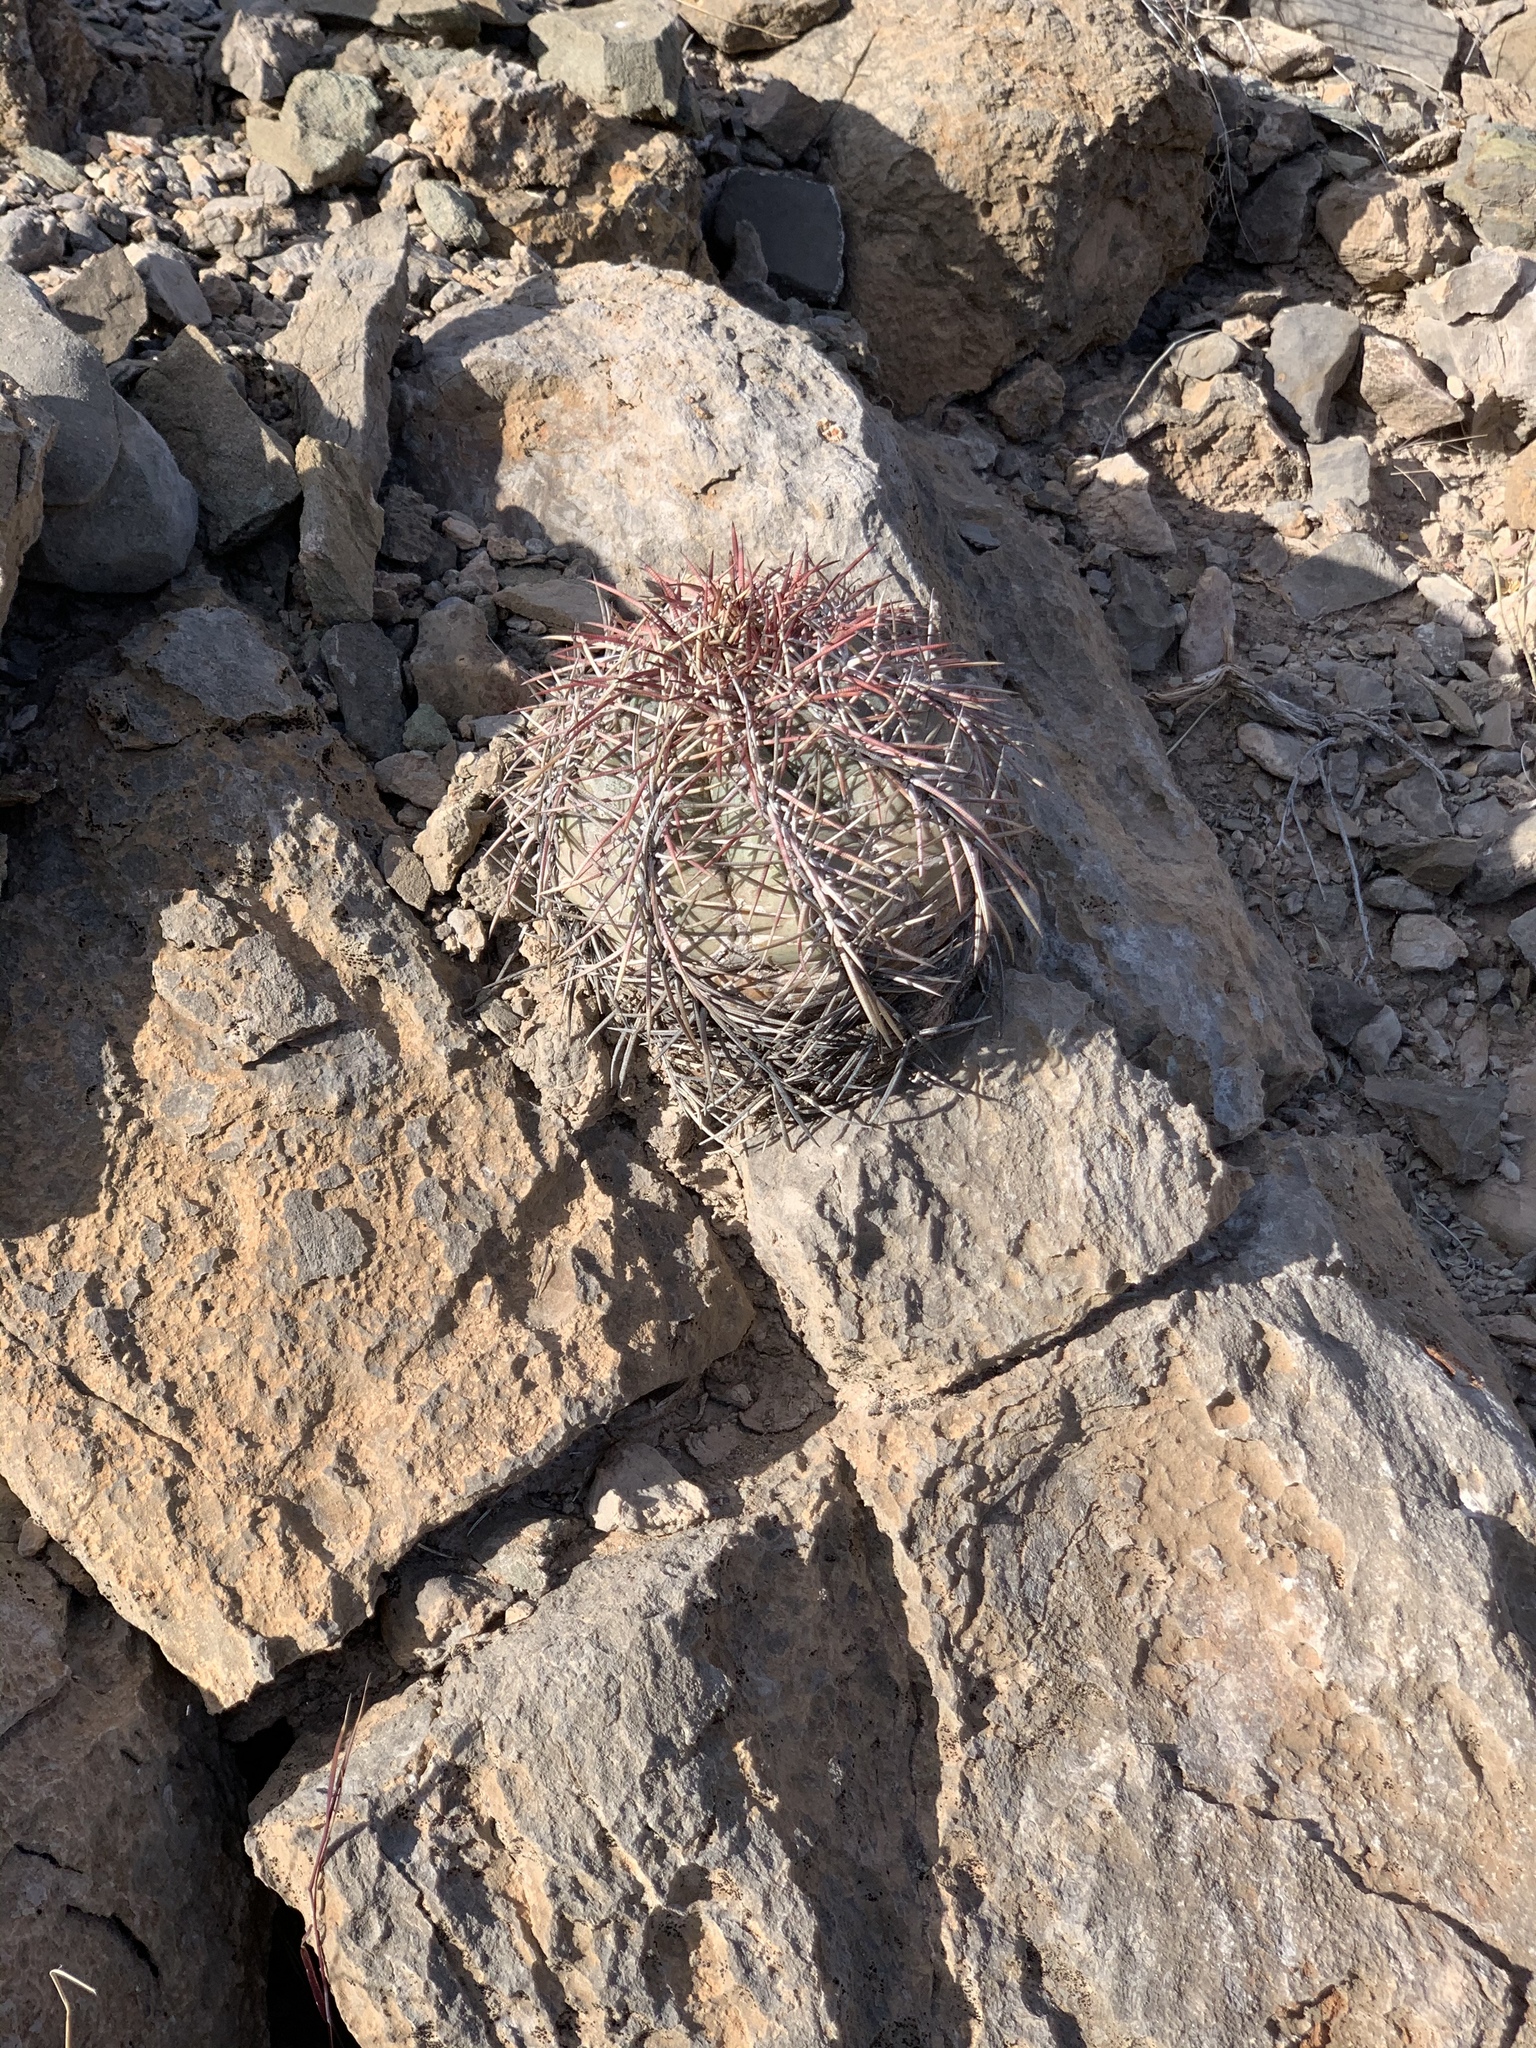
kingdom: Plantae
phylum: Tracheophyta
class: Magnoliopsida
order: Caryophyllales
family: Cactaceae
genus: Echinocactus
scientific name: Echinocactus horizonthalonius
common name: Devilshead
